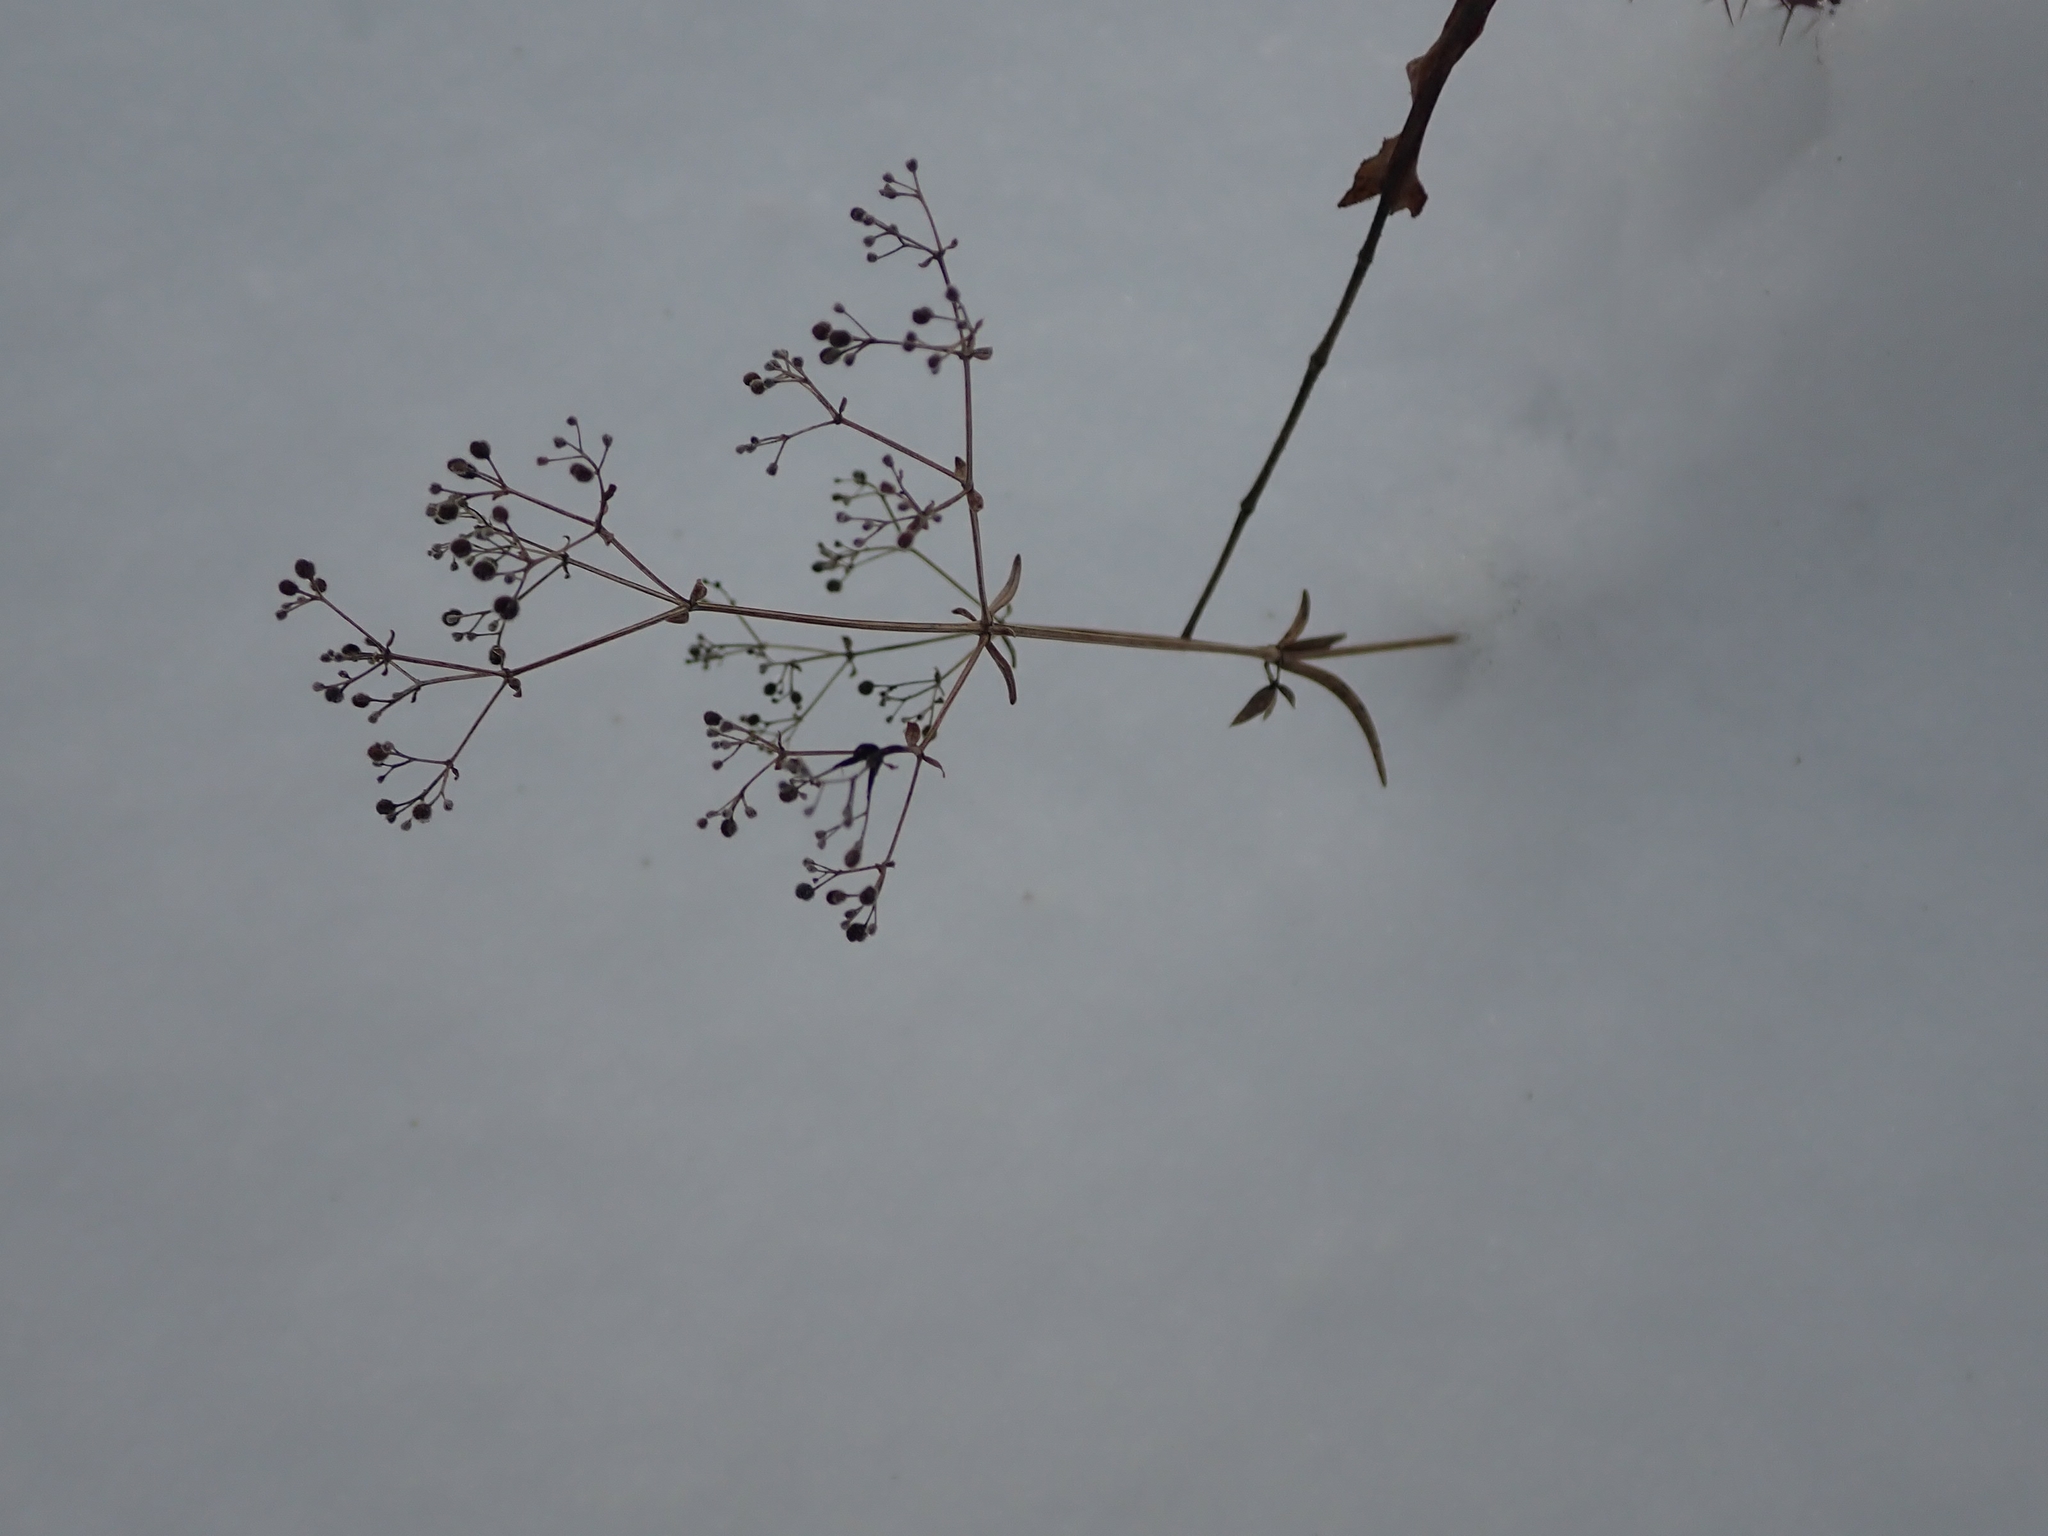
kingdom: Plantae
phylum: Tracheophyta
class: Magnoliopsida
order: Gentianales
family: Rubiaceae
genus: Galium
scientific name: Galium boreale
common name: Northern bedstraw
